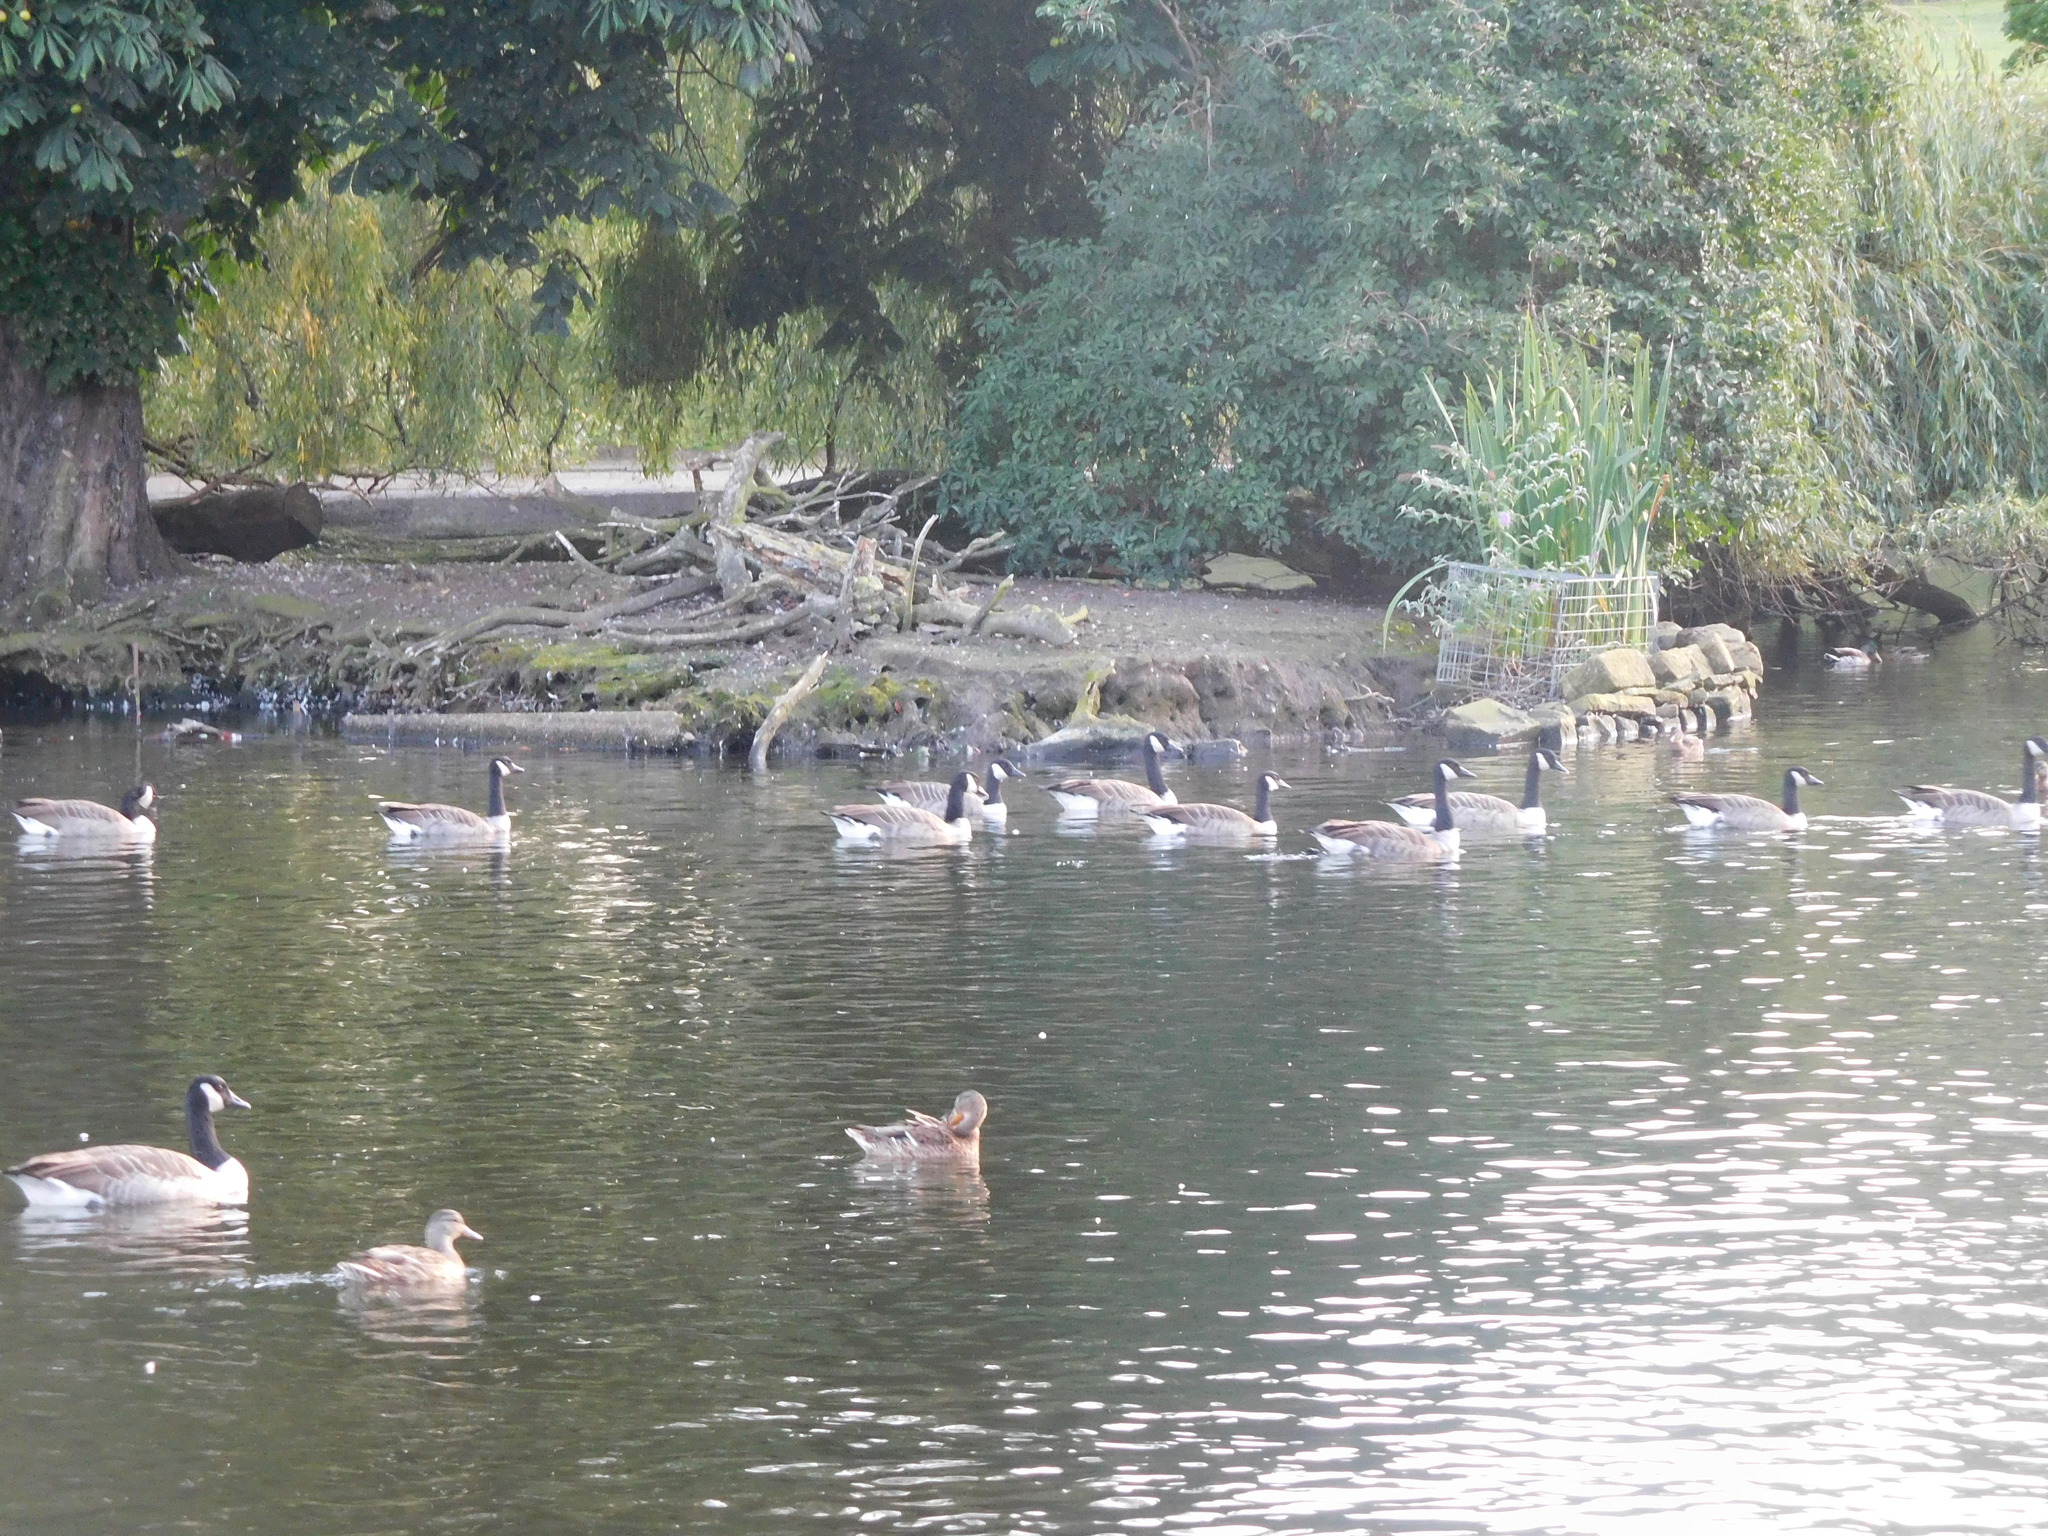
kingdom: Animalia
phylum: Chordata
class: Aves
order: Anseriformes
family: Anatidae
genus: Branta
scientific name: Branta canadensis
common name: Canada goose
